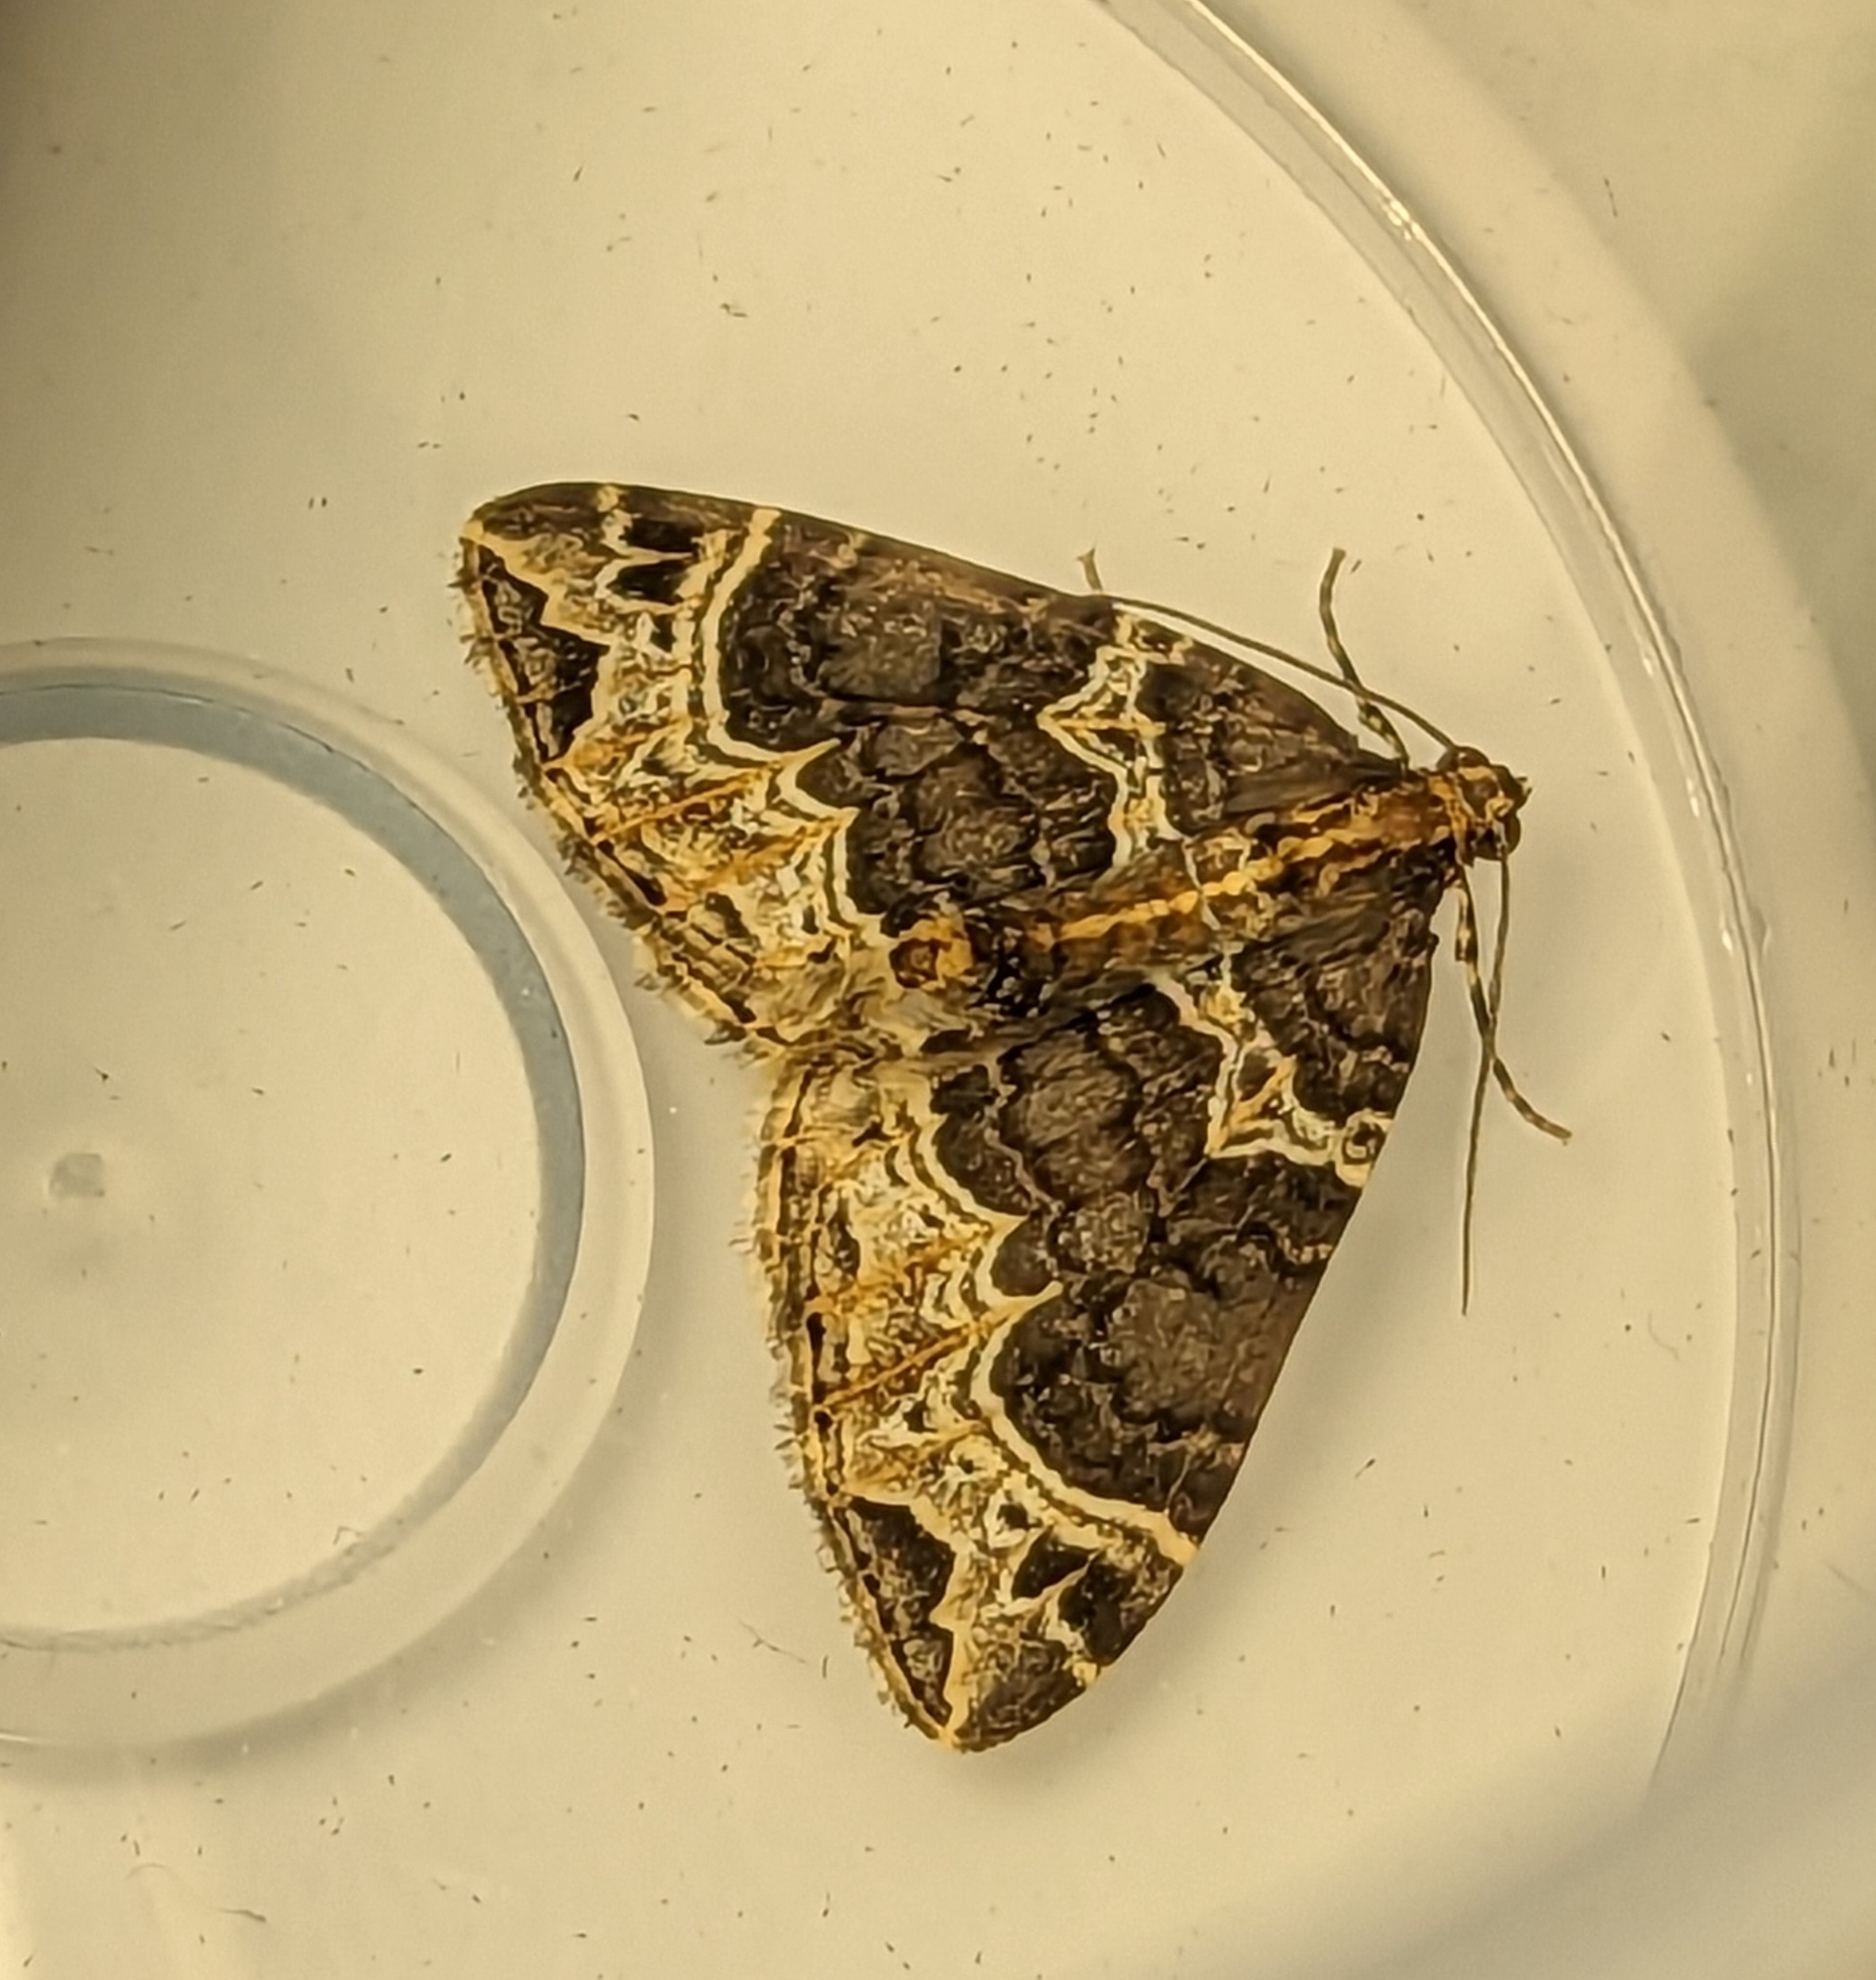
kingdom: Animalia
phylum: Arthropoda
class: Insecta
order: Lepidoptera
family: Geometridae
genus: Ecliptopera
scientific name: Ecliptopera silaceata
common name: Small phoenix
